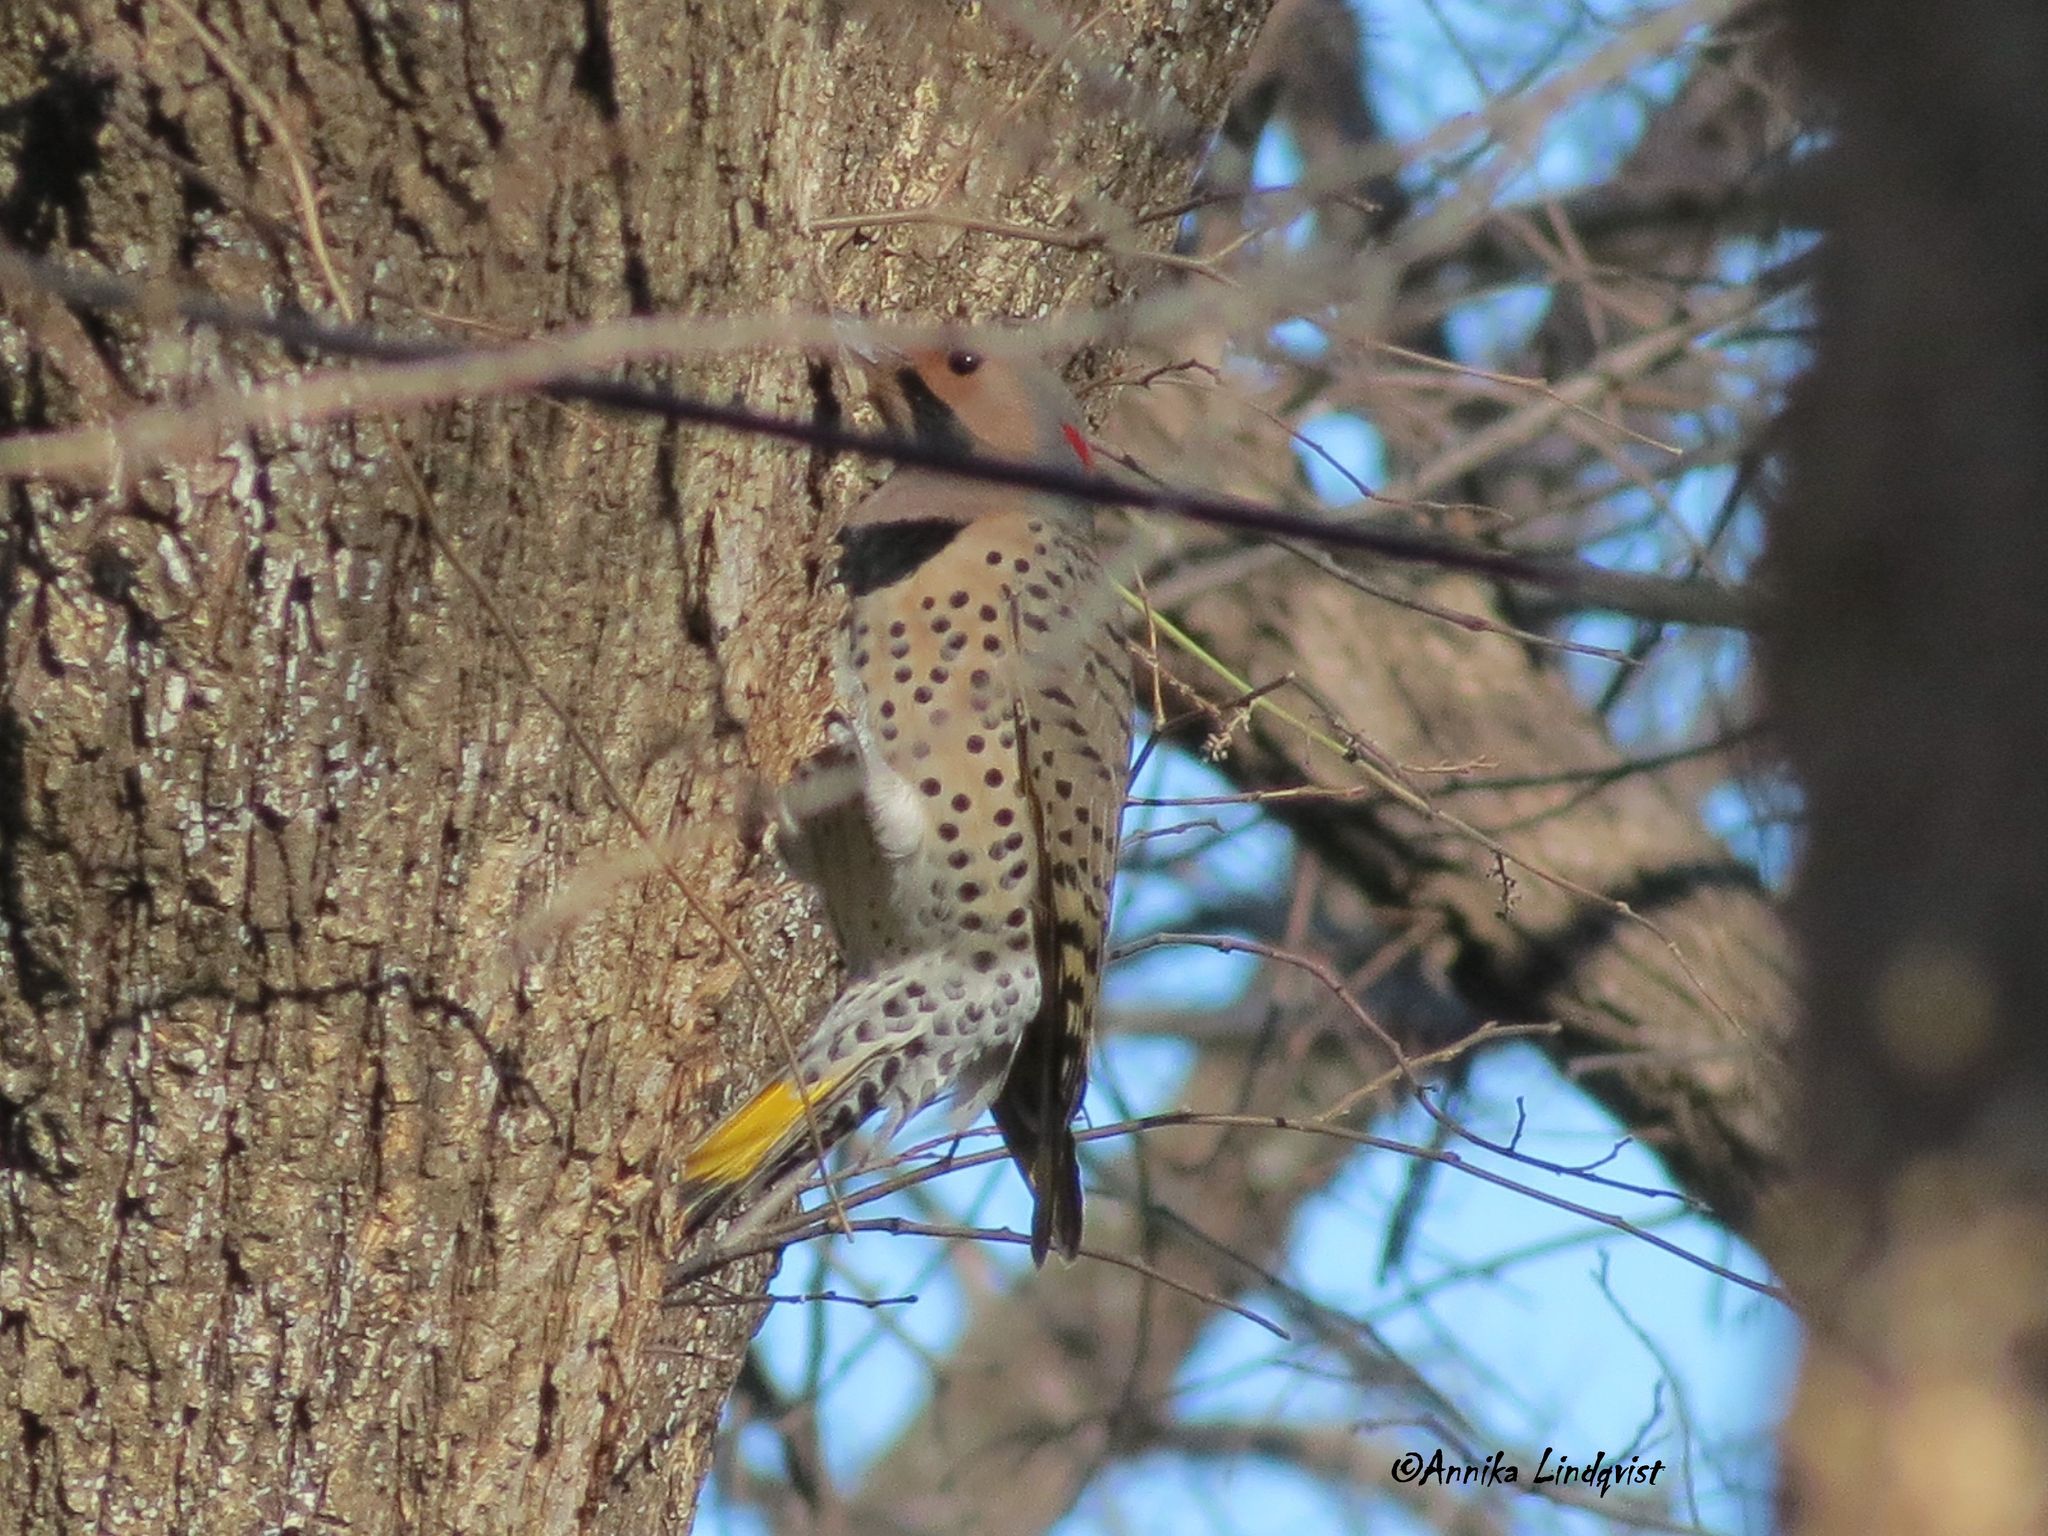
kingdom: Animalia
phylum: Chordata
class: Aves
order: Piciformes
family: Picidae
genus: Colaptes
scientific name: Colaptes auratus
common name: Northern flicker
